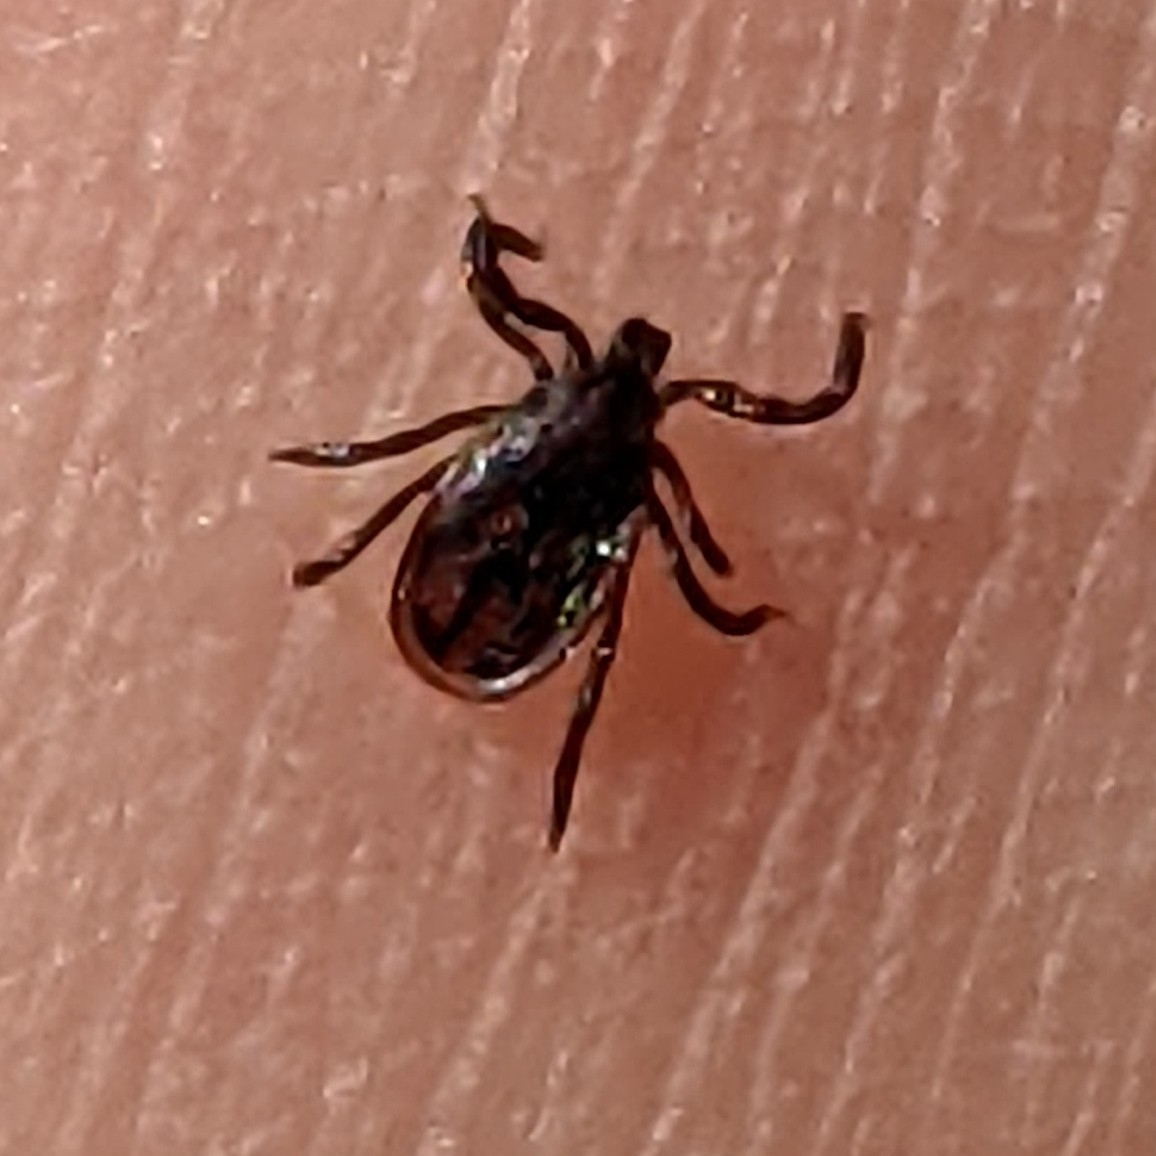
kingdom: Animalia
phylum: Arthropoda
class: Arachnida
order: Ixodida
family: Ixodidae
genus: Ixodes
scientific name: Ixodes pacificus
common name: California black-legged tick
